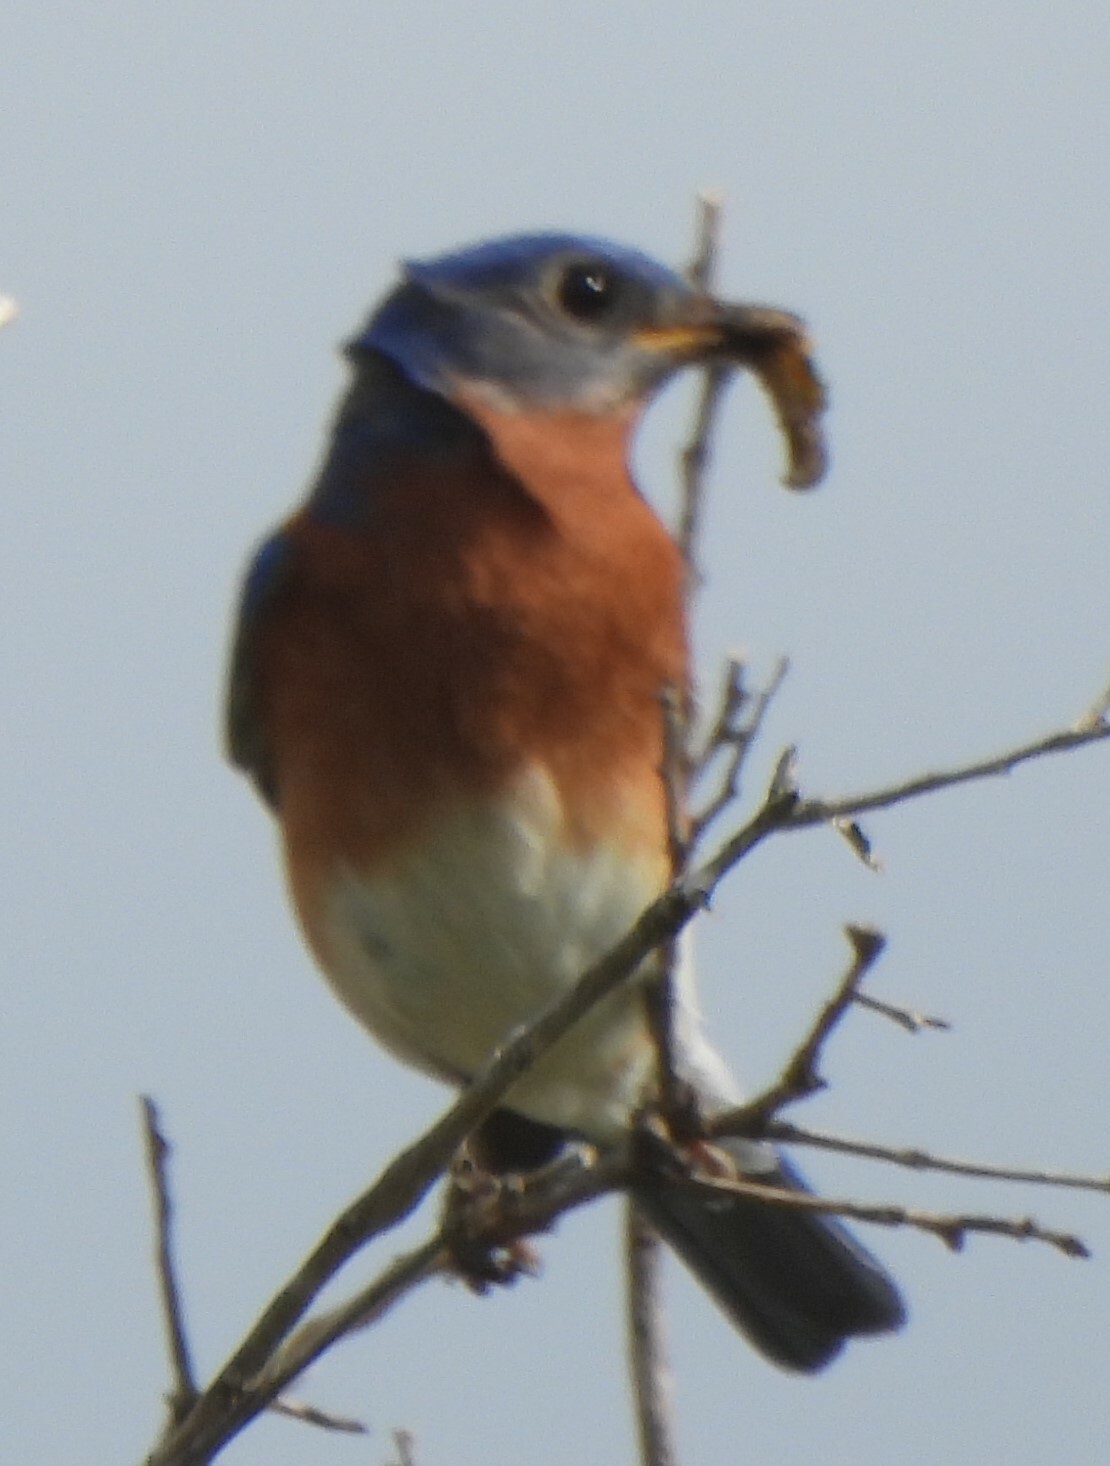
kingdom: Animalia
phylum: Chordata
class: Aves
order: Passeriformes
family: Turdidae
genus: Sialia
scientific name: Sialia sialis
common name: Eastern bluebird
